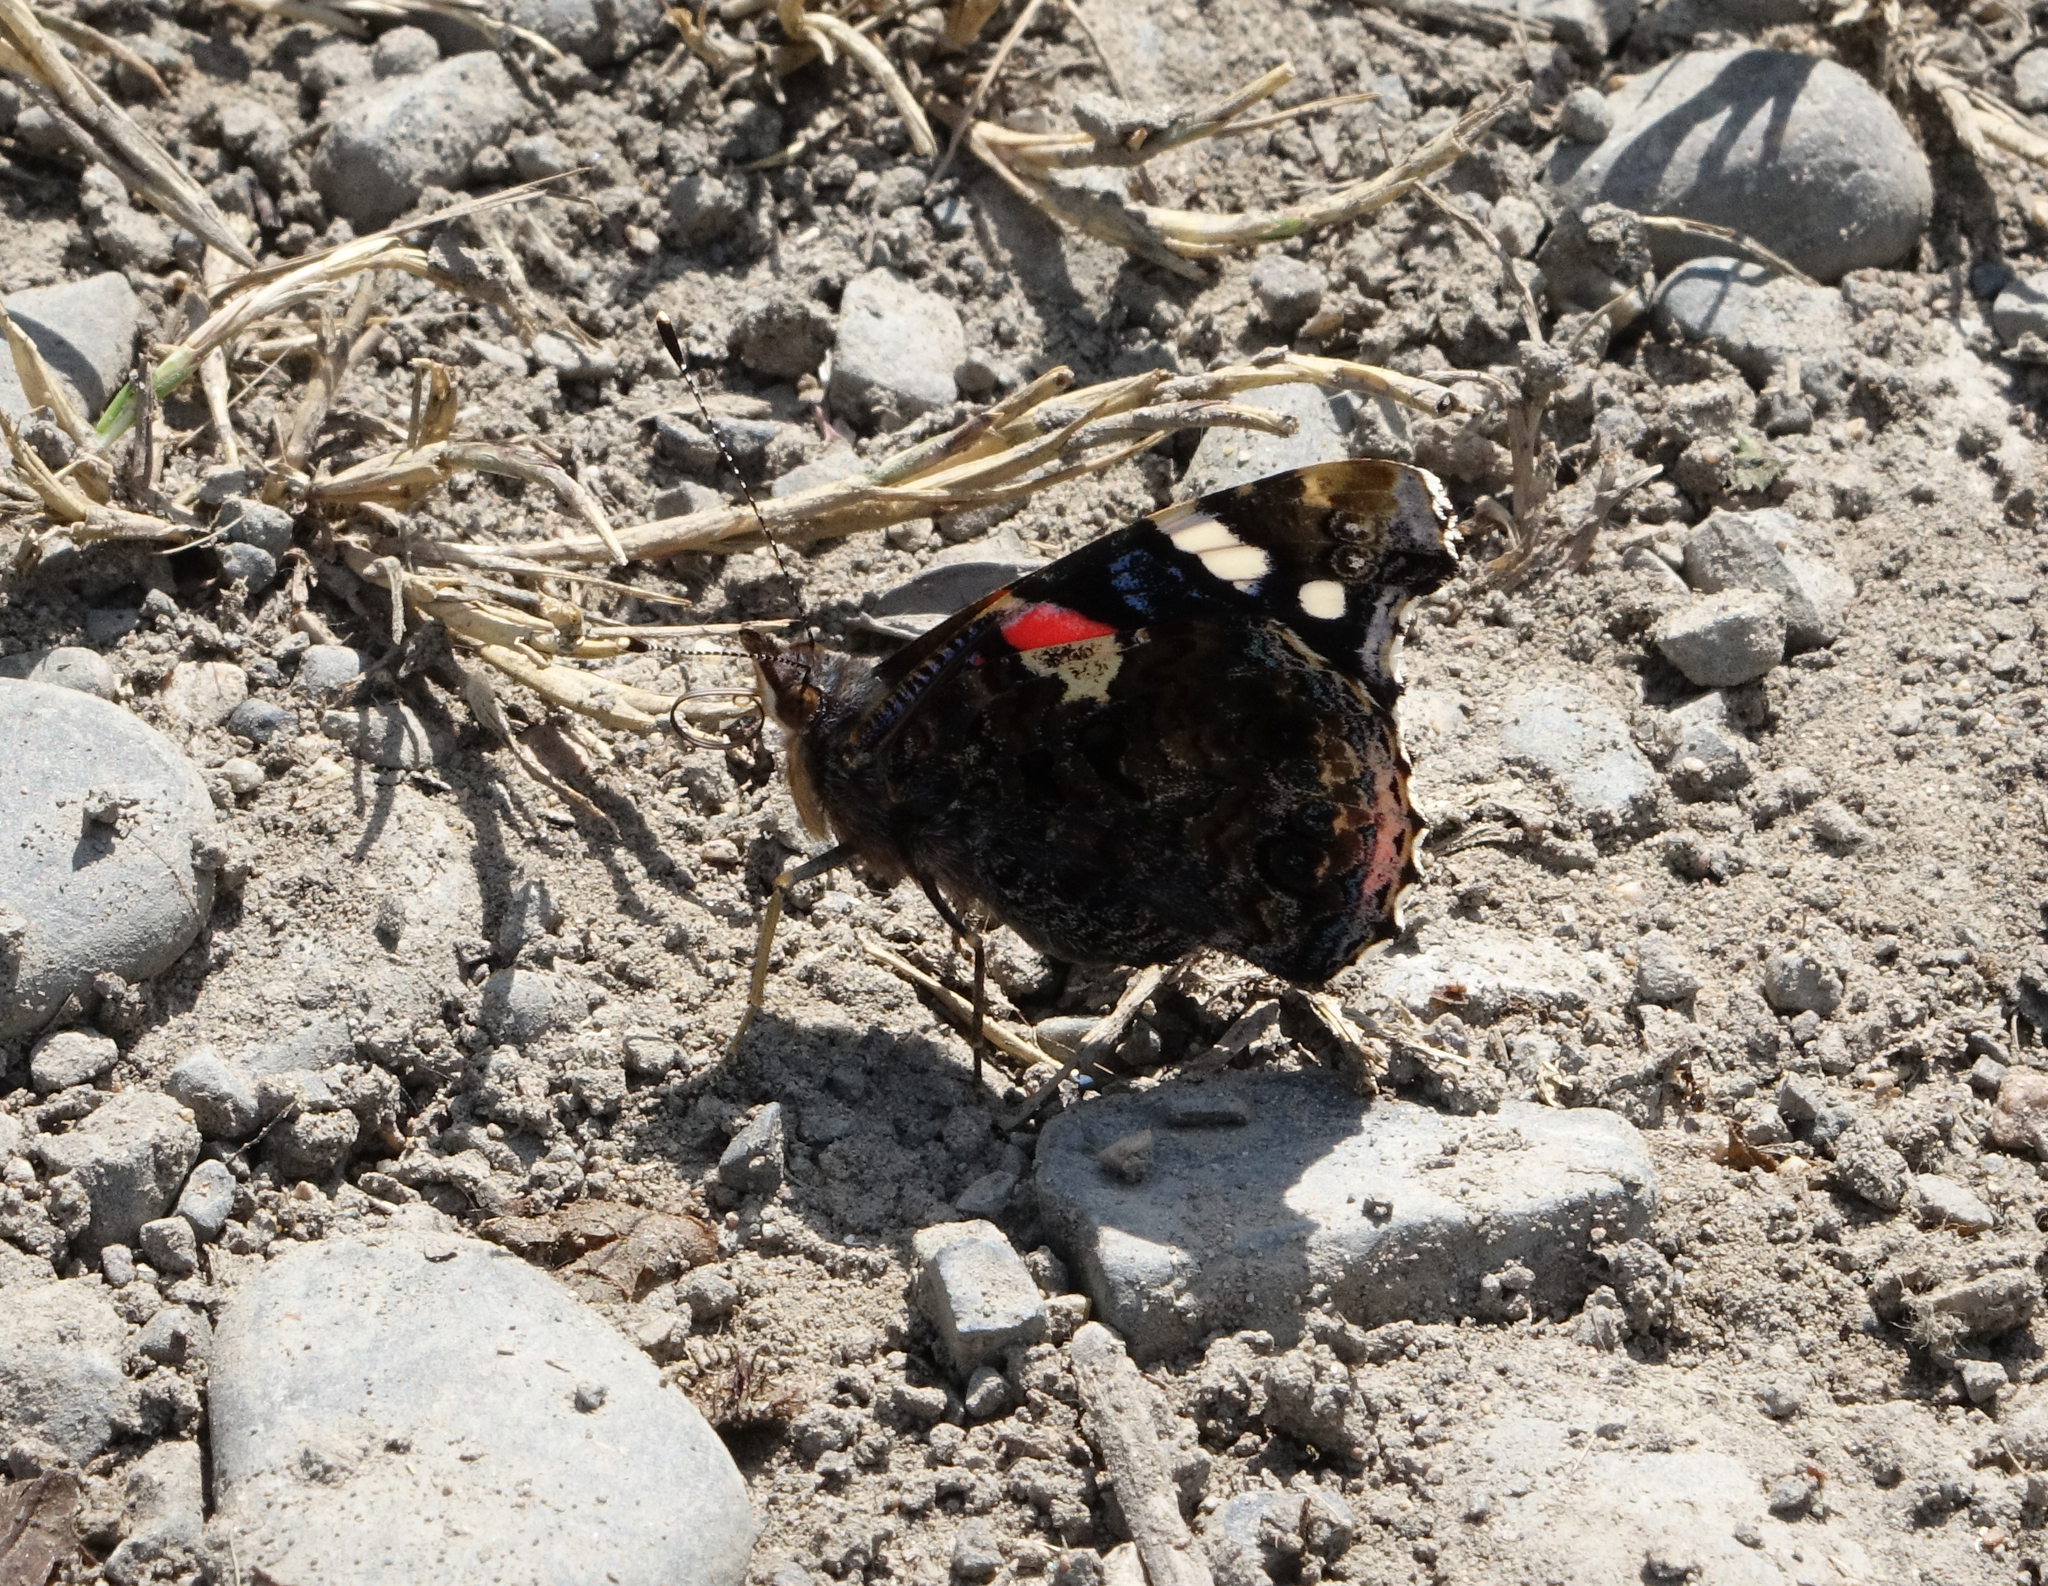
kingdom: Animalia
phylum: Arthropoda
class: Insecta
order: Lepidoptera
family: Nymphalidae
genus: Vanessa
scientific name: Vanessa atalanta
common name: Red admiral
